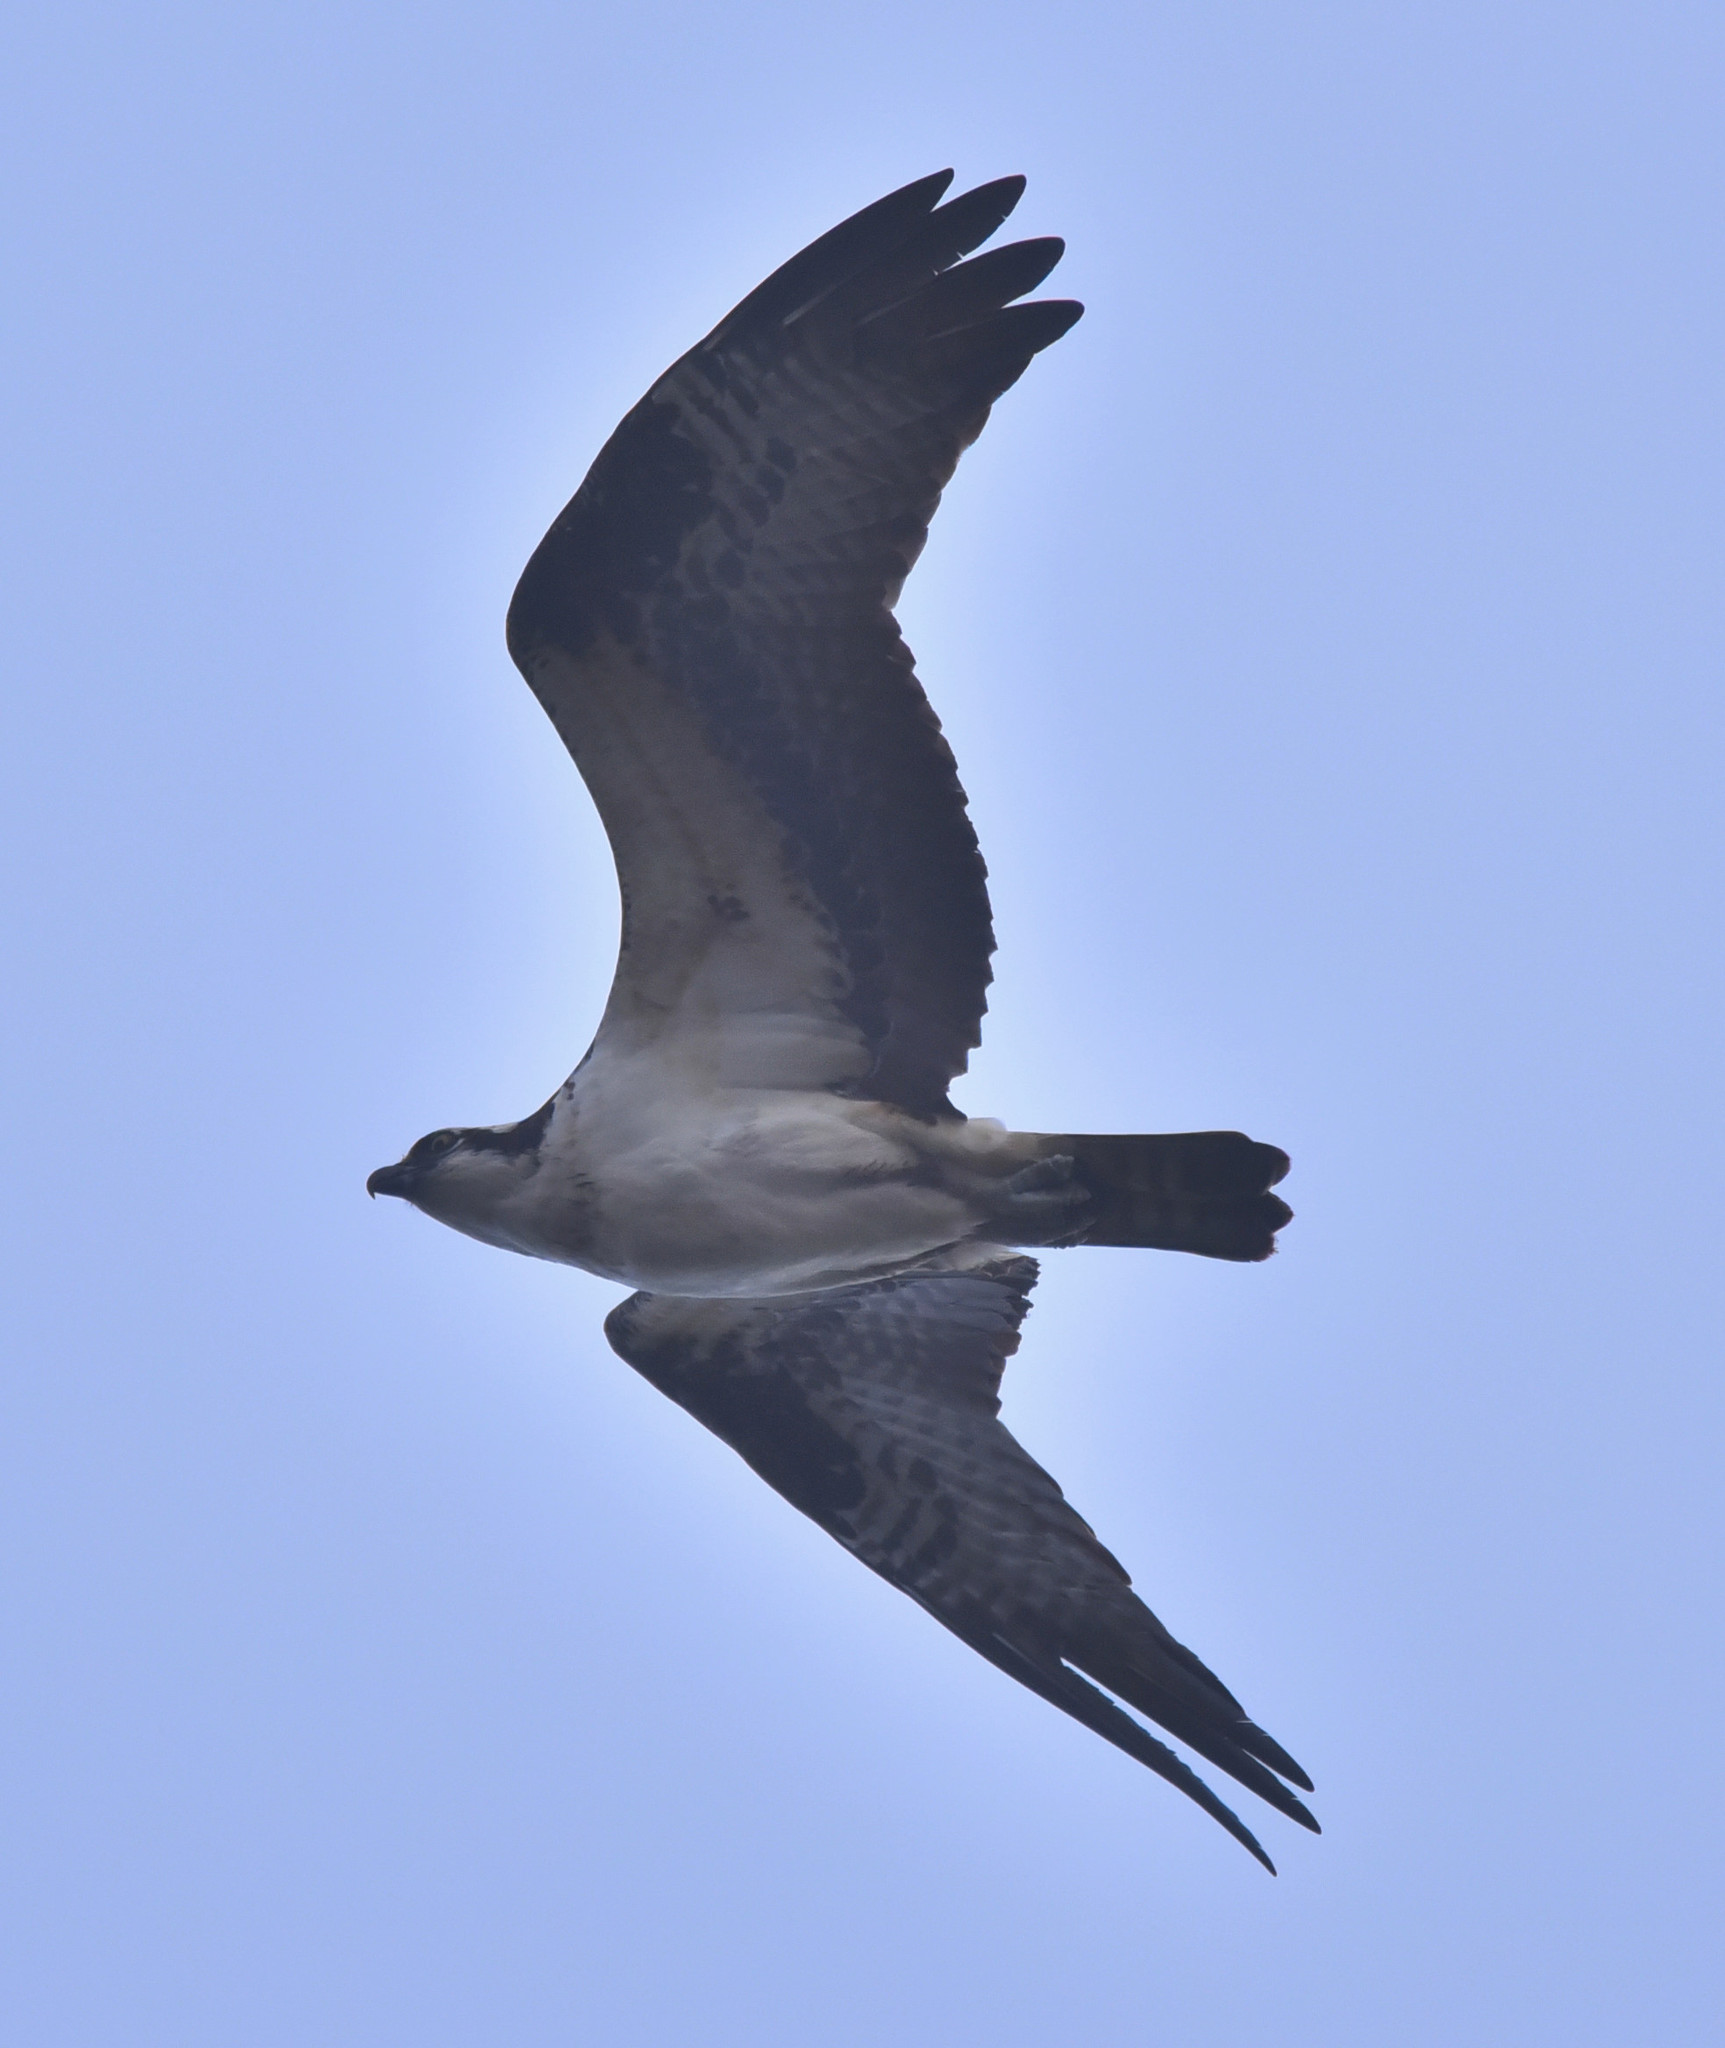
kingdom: Animalia
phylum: Chordata
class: Aves
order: Accipitriformes
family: Pandionidae
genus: Pandion
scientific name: Pandion haliaetus
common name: Osprey
